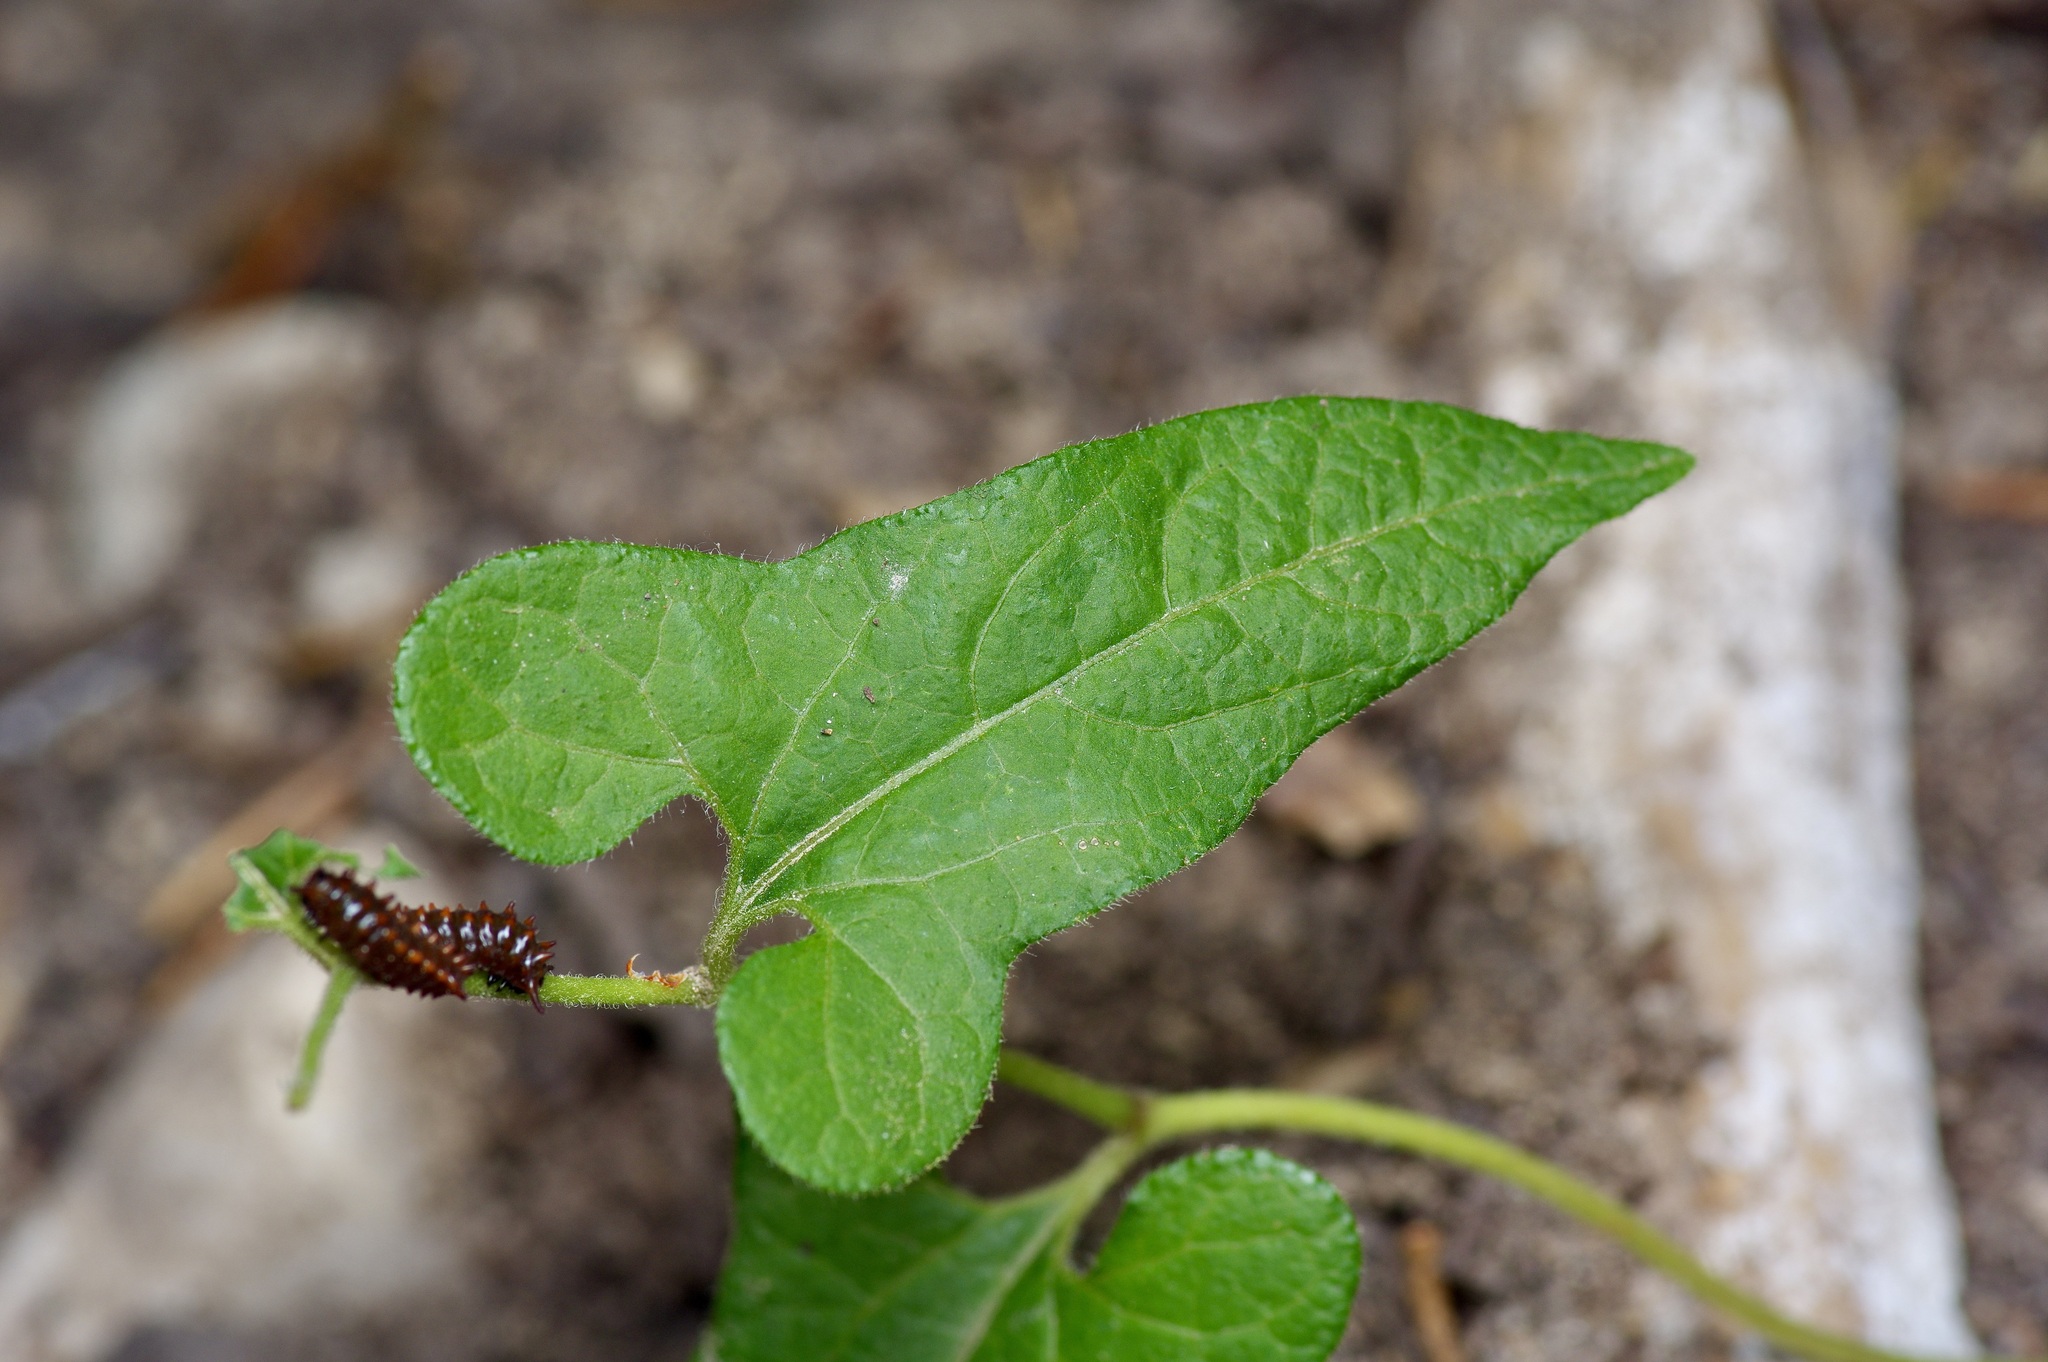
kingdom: Animalia
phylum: Arthropoda
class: Insecta
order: Lepidoptera
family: Papilionidae
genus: Battus
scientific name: Battus philenor
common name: Pipevine swallowtail
